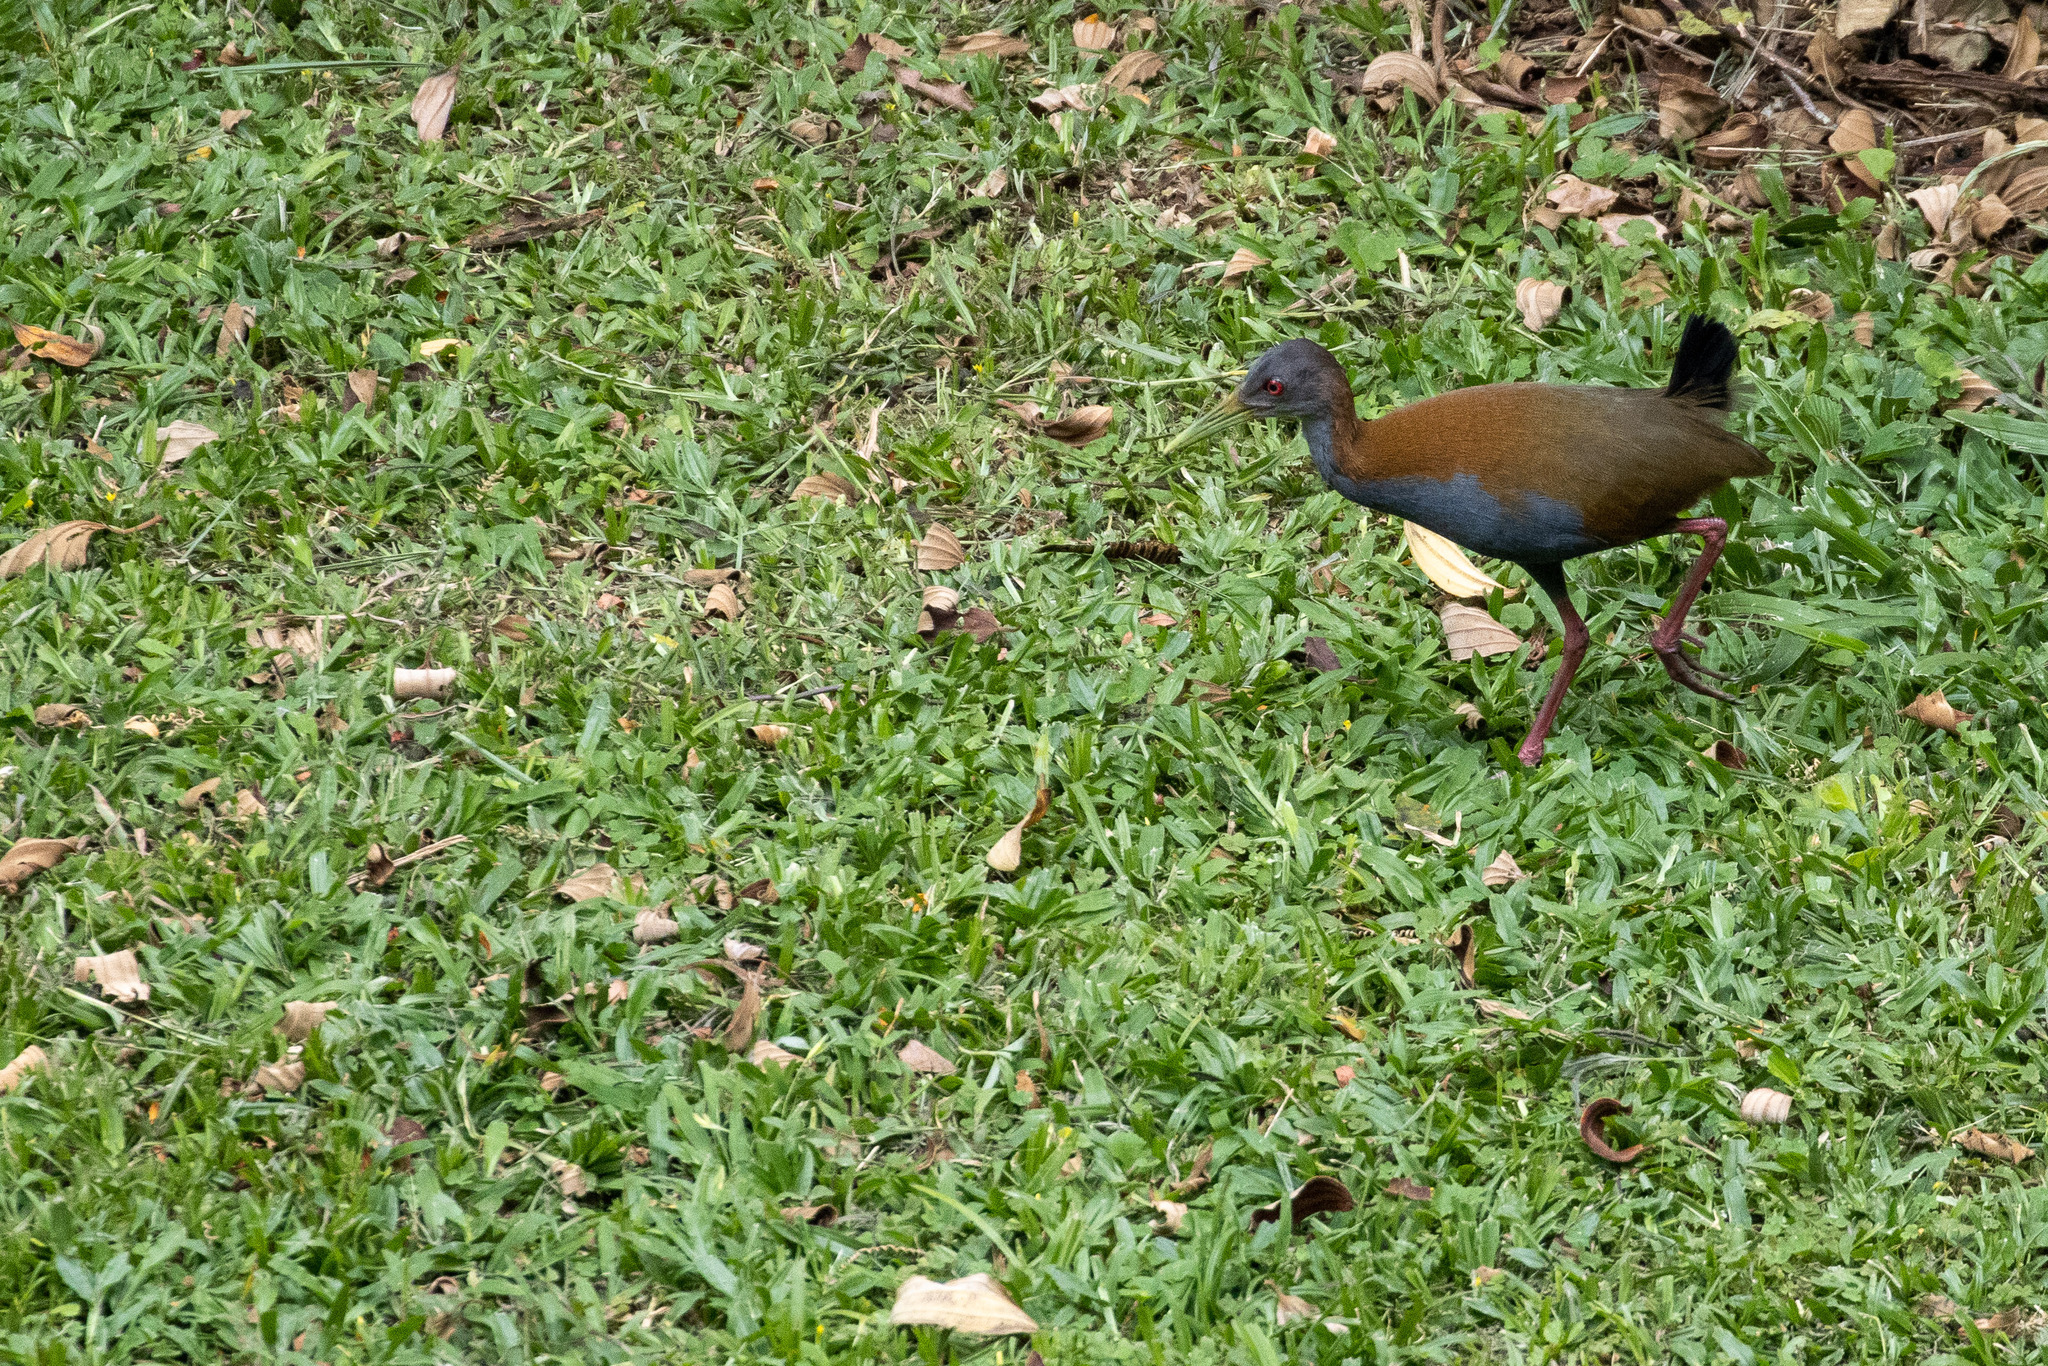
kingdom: Animalia
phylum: Chordata
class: Aves
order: Gruiformes
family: Rallidae
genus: Aramides
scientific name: Aramides saracura
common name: Slaty-breasted wood rail
